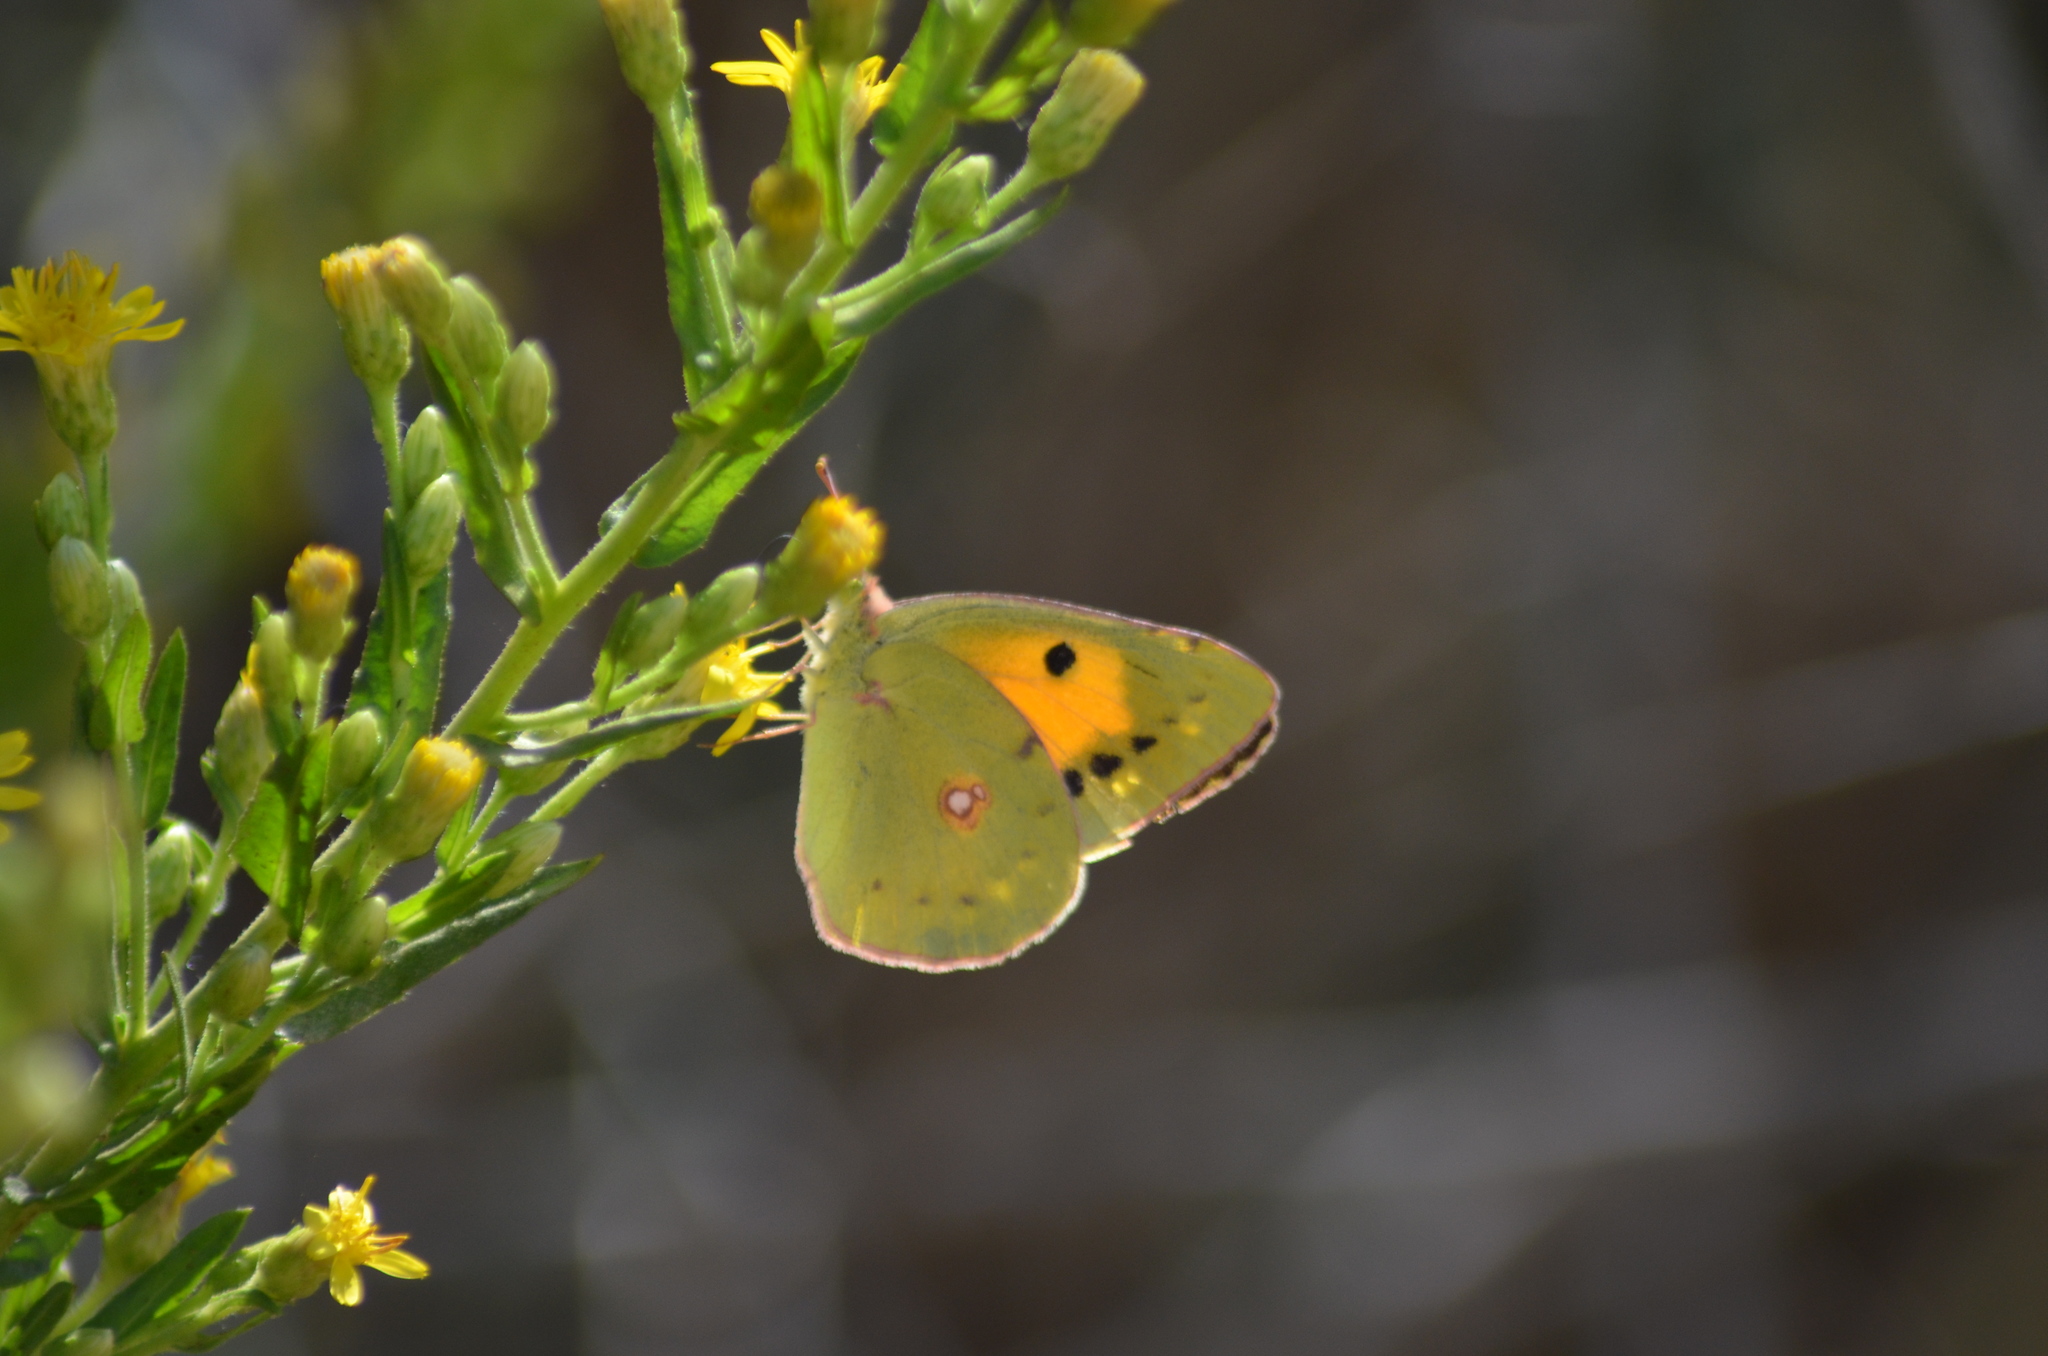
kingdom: Animalia
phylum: Arthropoda
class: Insecta
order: Lepidoptera
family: Pieridae
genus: Colias
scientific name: Colias croceus
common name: Clouded yellow
